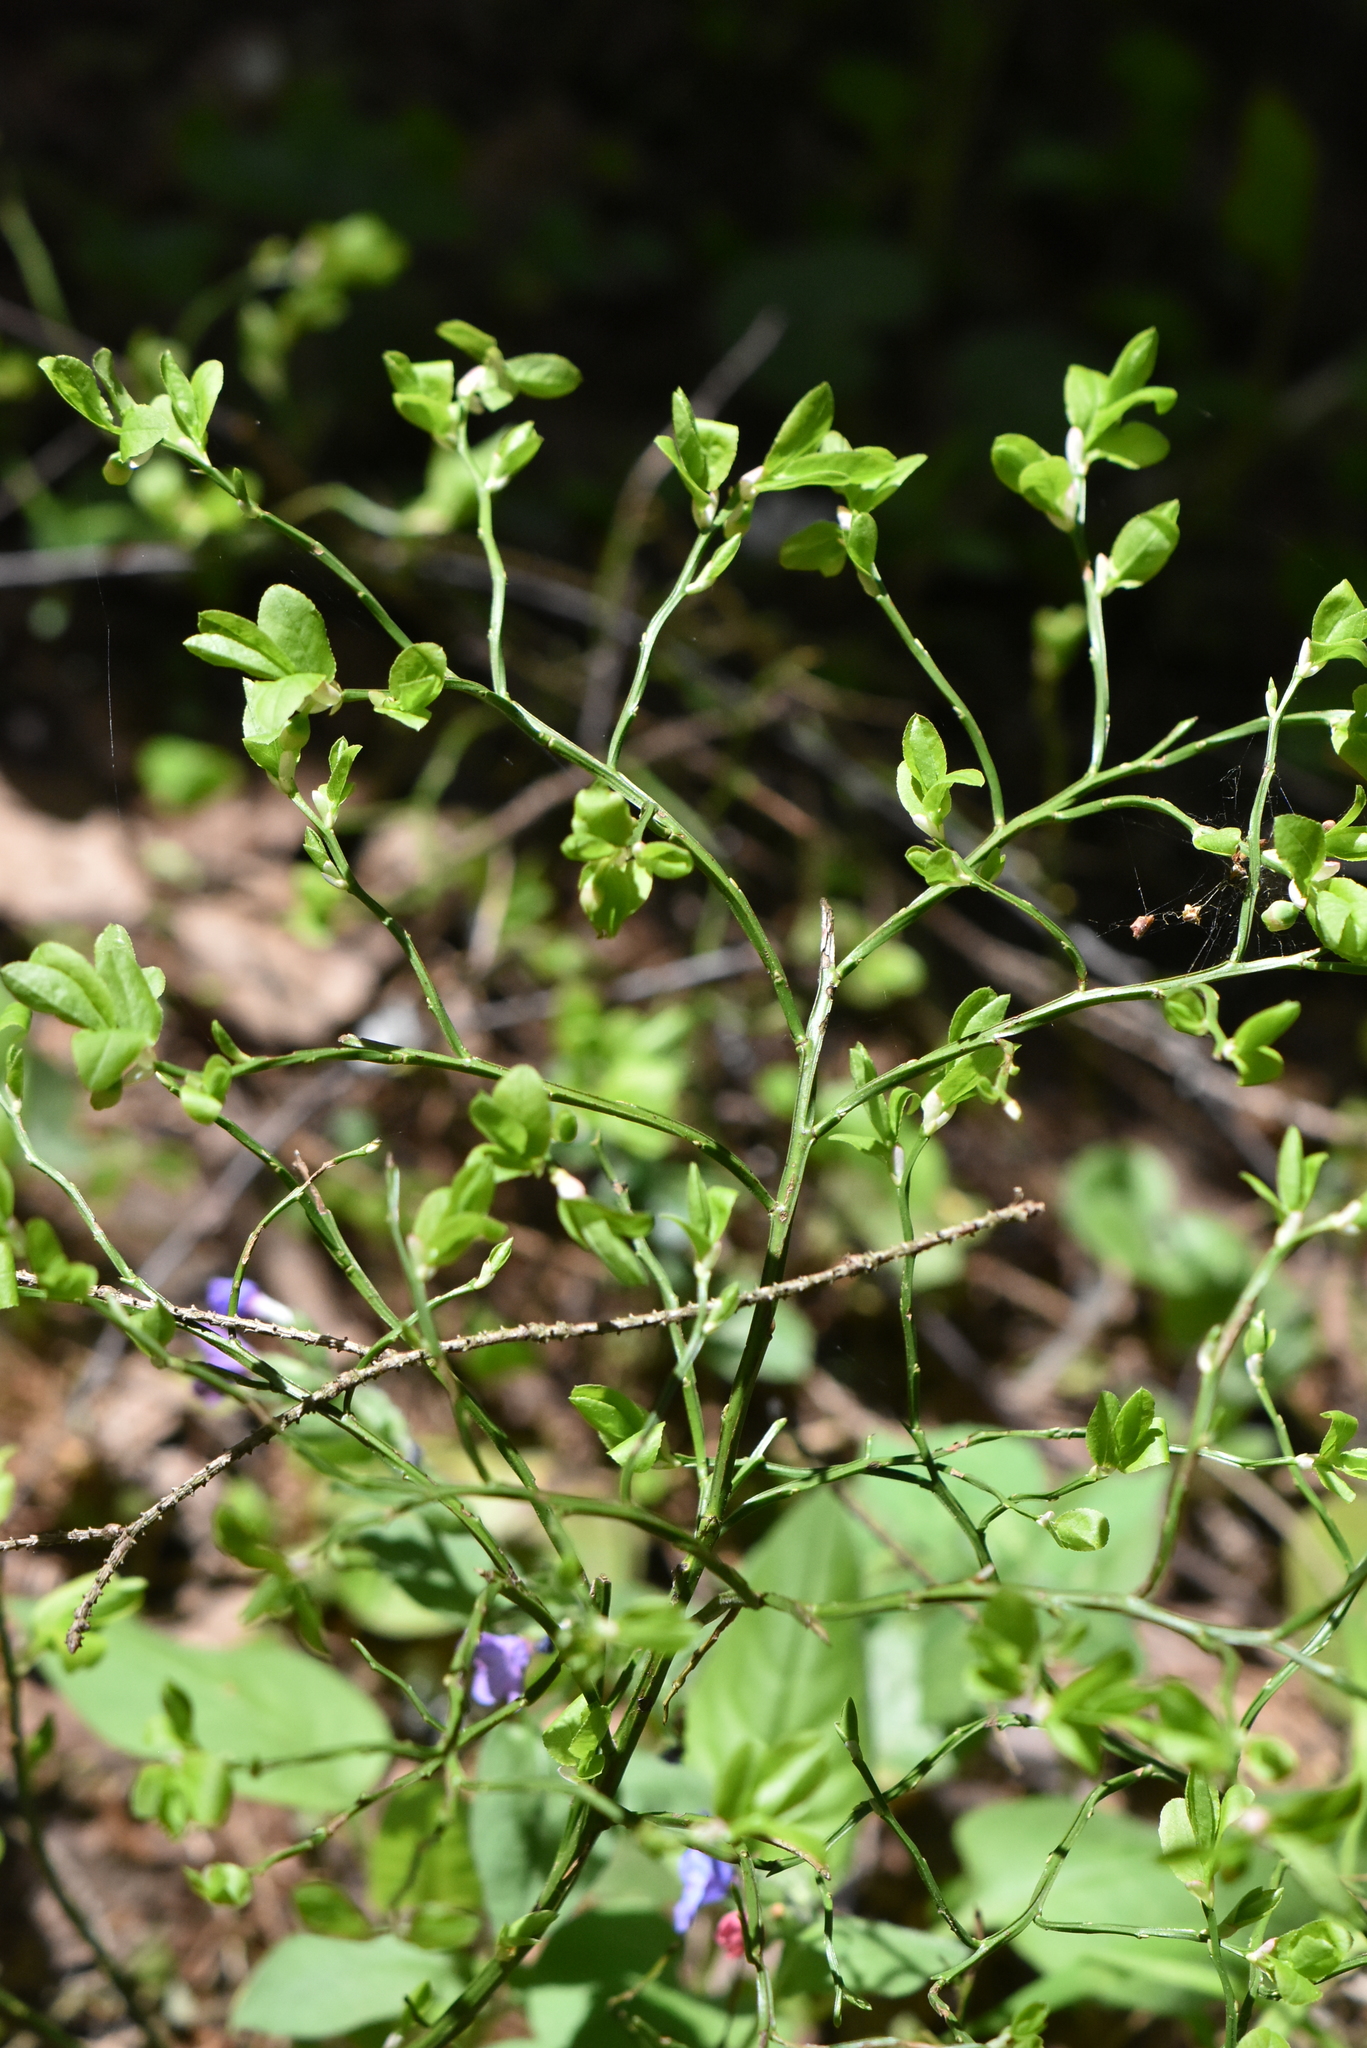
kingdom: Plantae
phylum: Tracheophyta
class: Magnoliopsida
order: Ericales
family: Ericaceae
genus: Vaccinium
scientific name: Vaccinium myrtillus
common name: Bilberry
